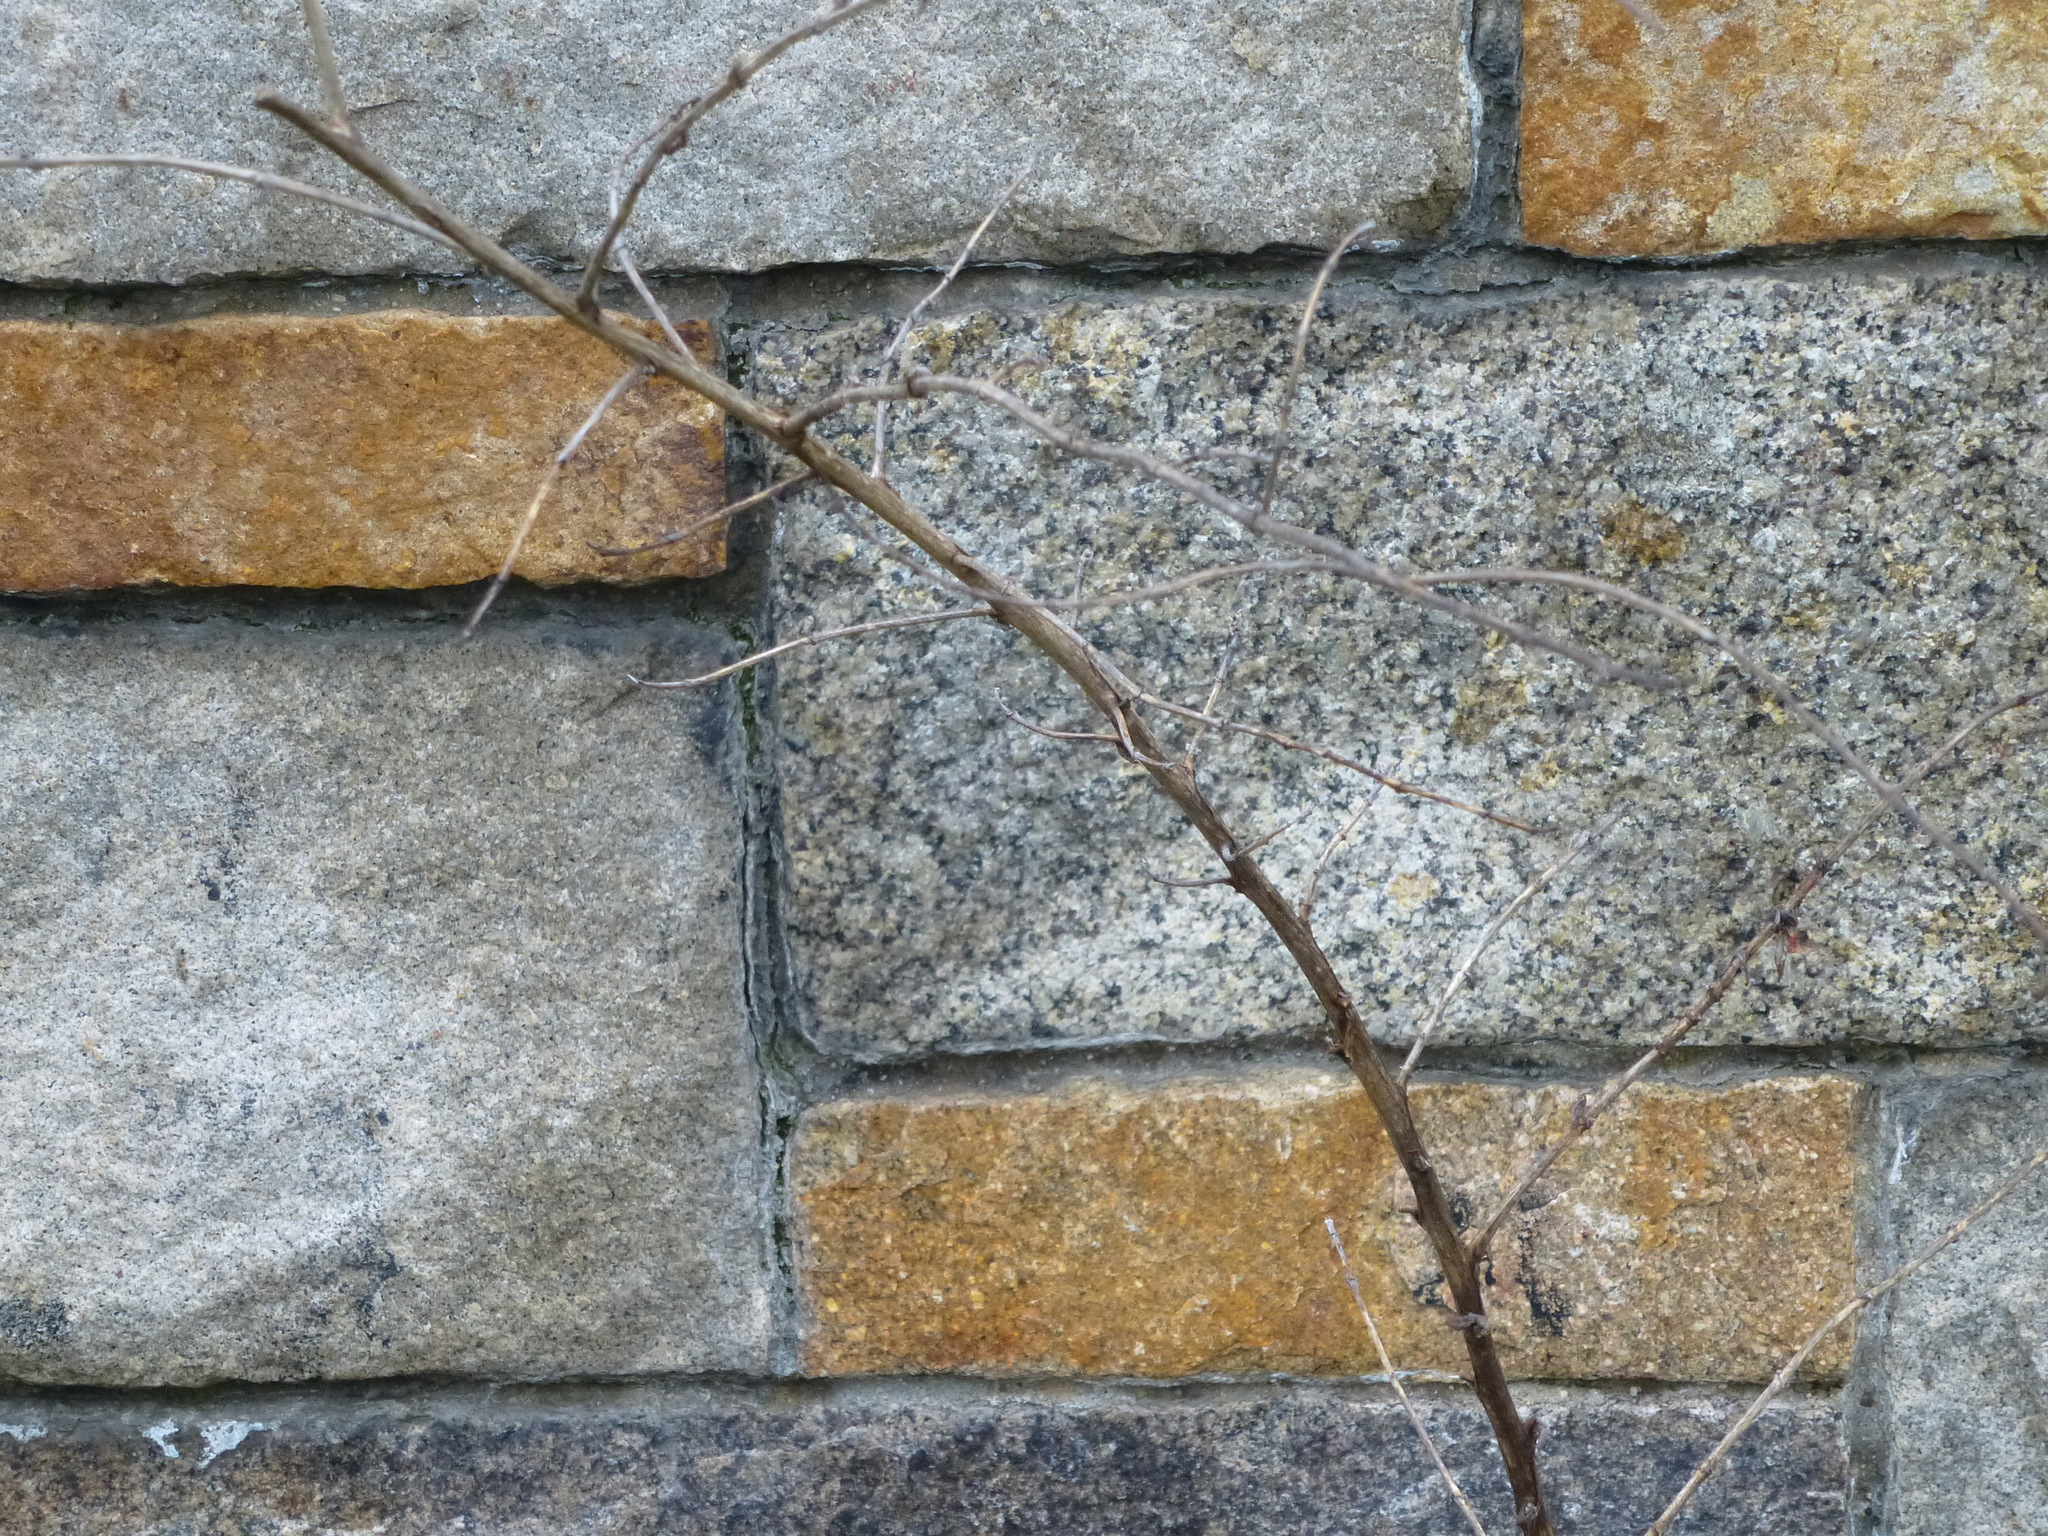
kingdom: Plantae
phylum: Tracheophyta
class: Magnoliopsida
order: Lamiales
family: Scrophulariaceae
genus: Buddleja
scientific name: Buddleja davidii
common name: Butterfly-bush
